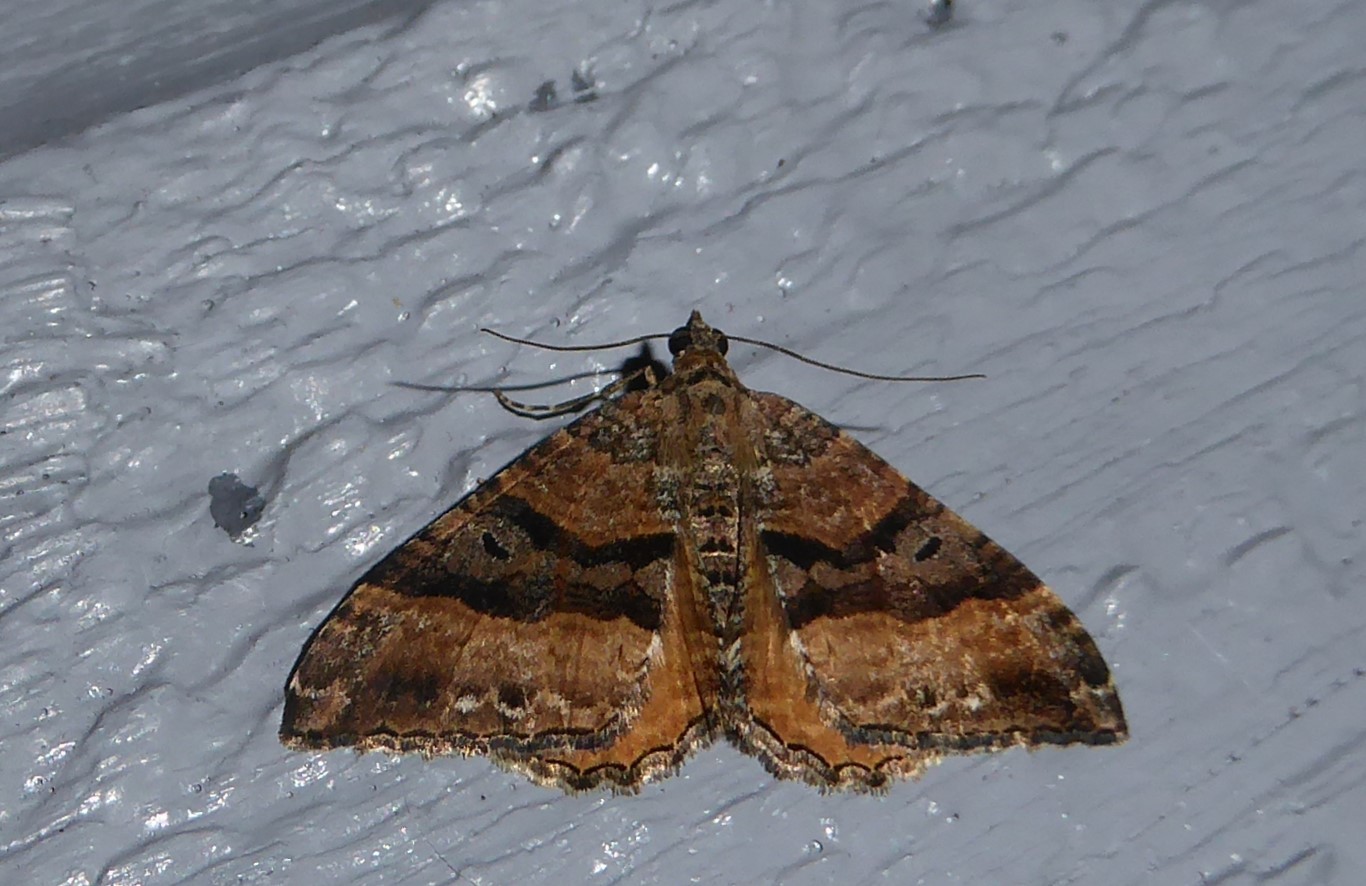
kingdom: Animalia
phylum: Arthropoda
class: Insecta
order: Lepidoptera
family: Geometridae
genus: Hydriomena
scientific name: Hydriomena deltoidata
